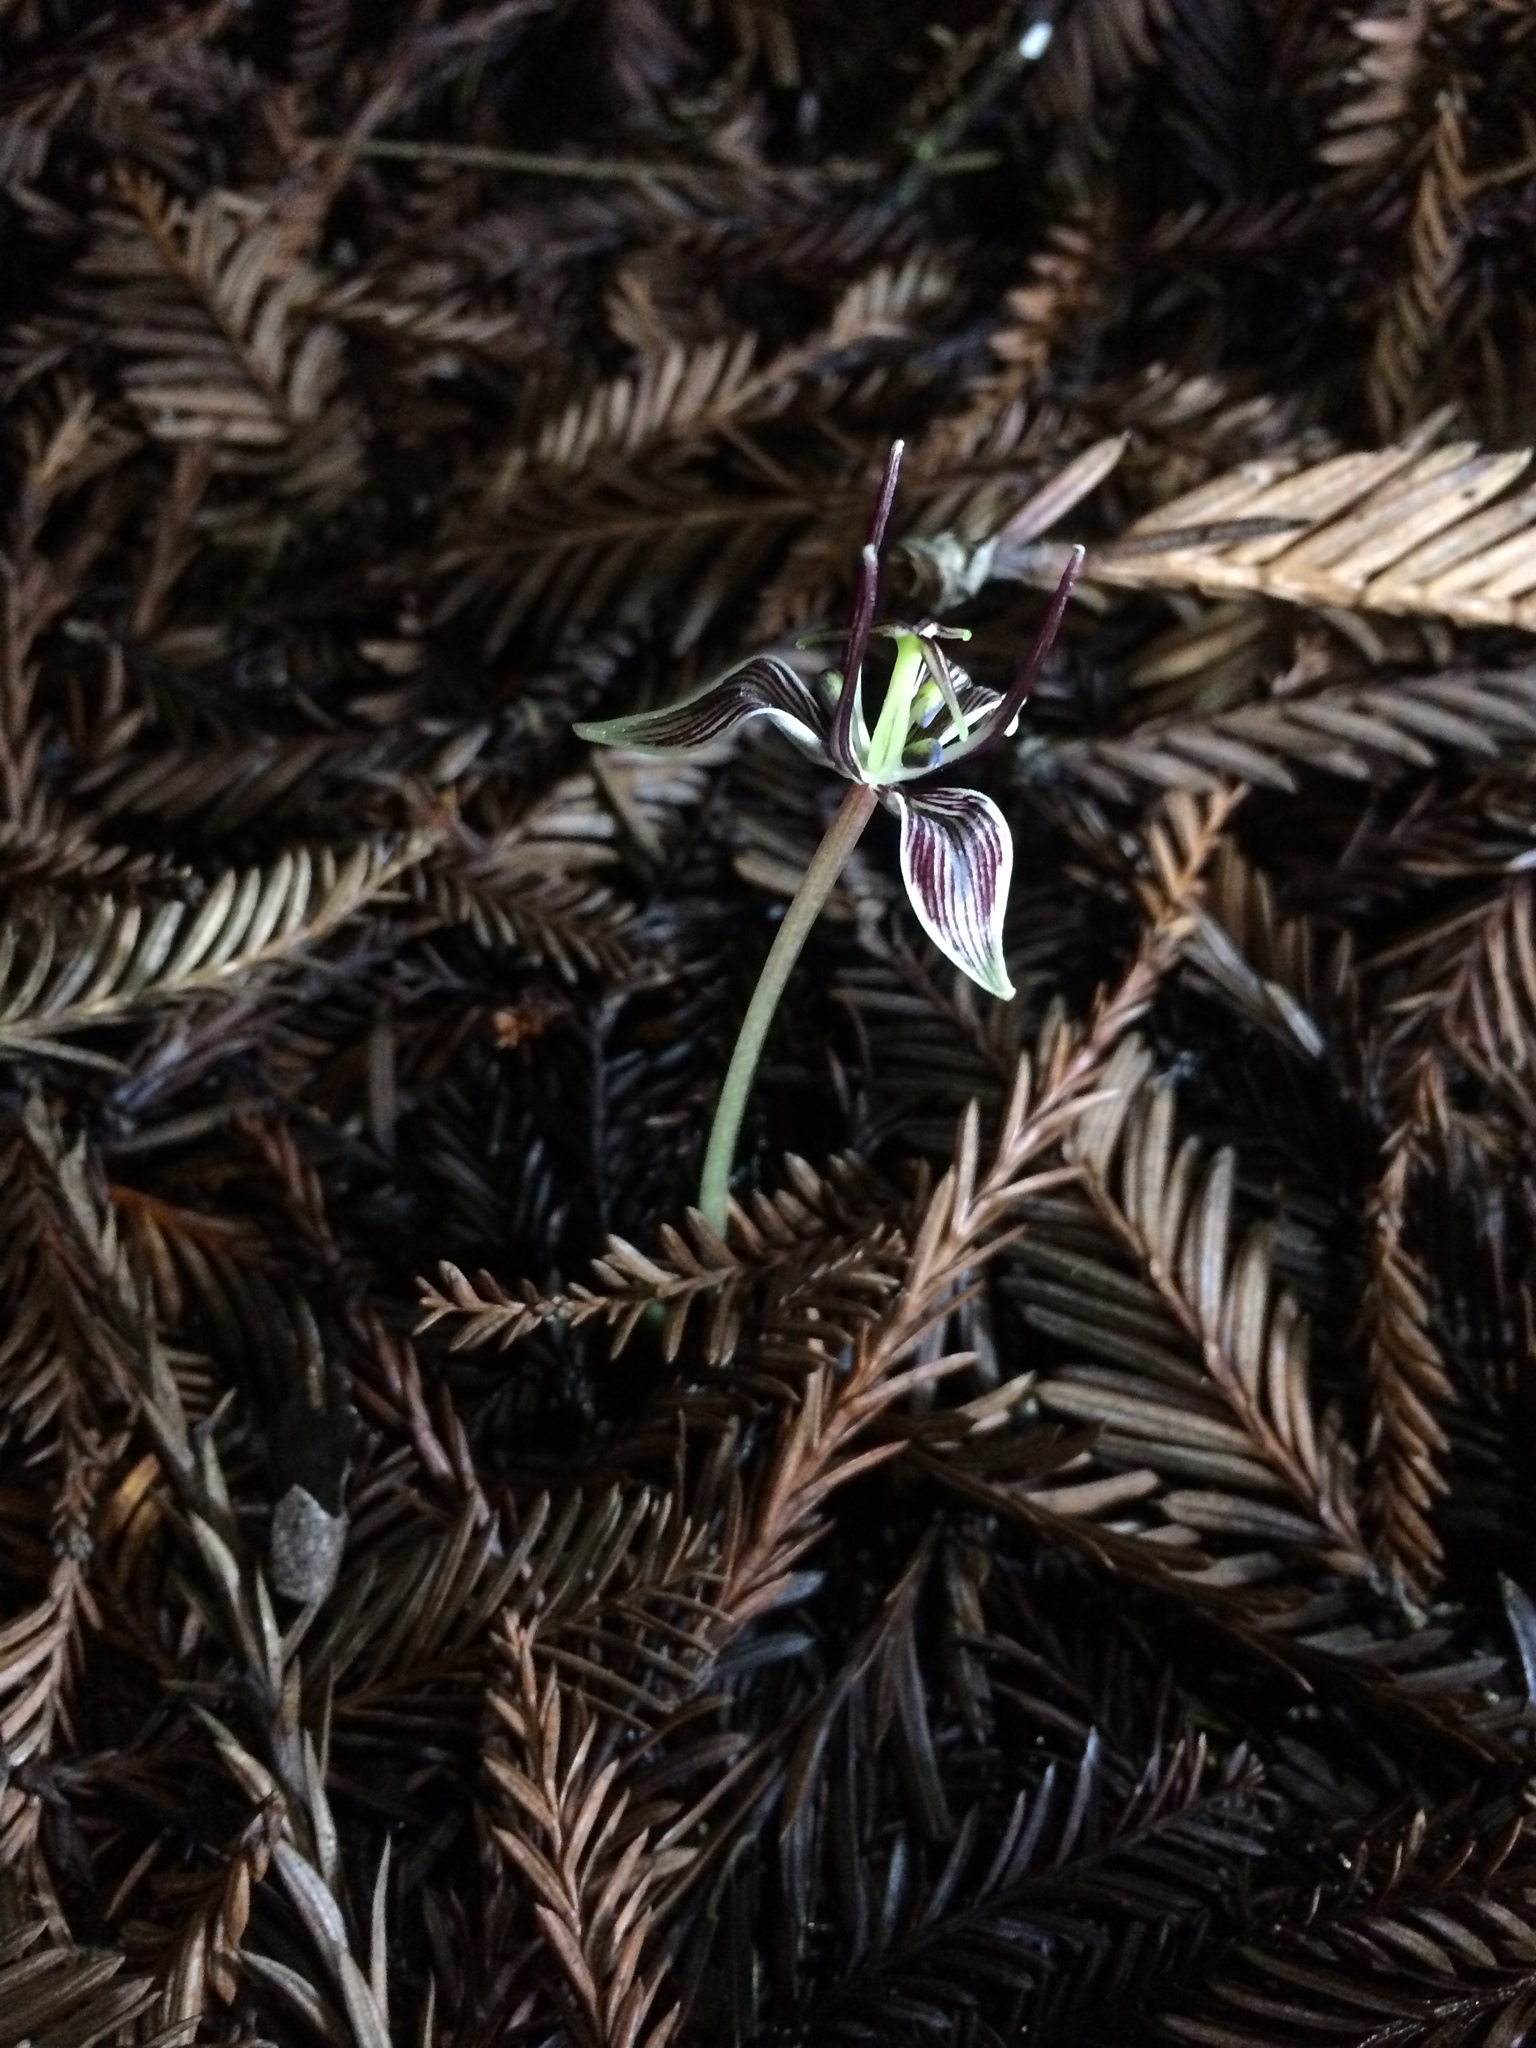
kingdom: Plantae
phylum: Tracheophyta
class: Liliopsida
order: Liliales
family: Liliaceae
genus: Scoliopus
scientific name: Scoliopus bigelovii
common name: Foetid adder's-tongue
